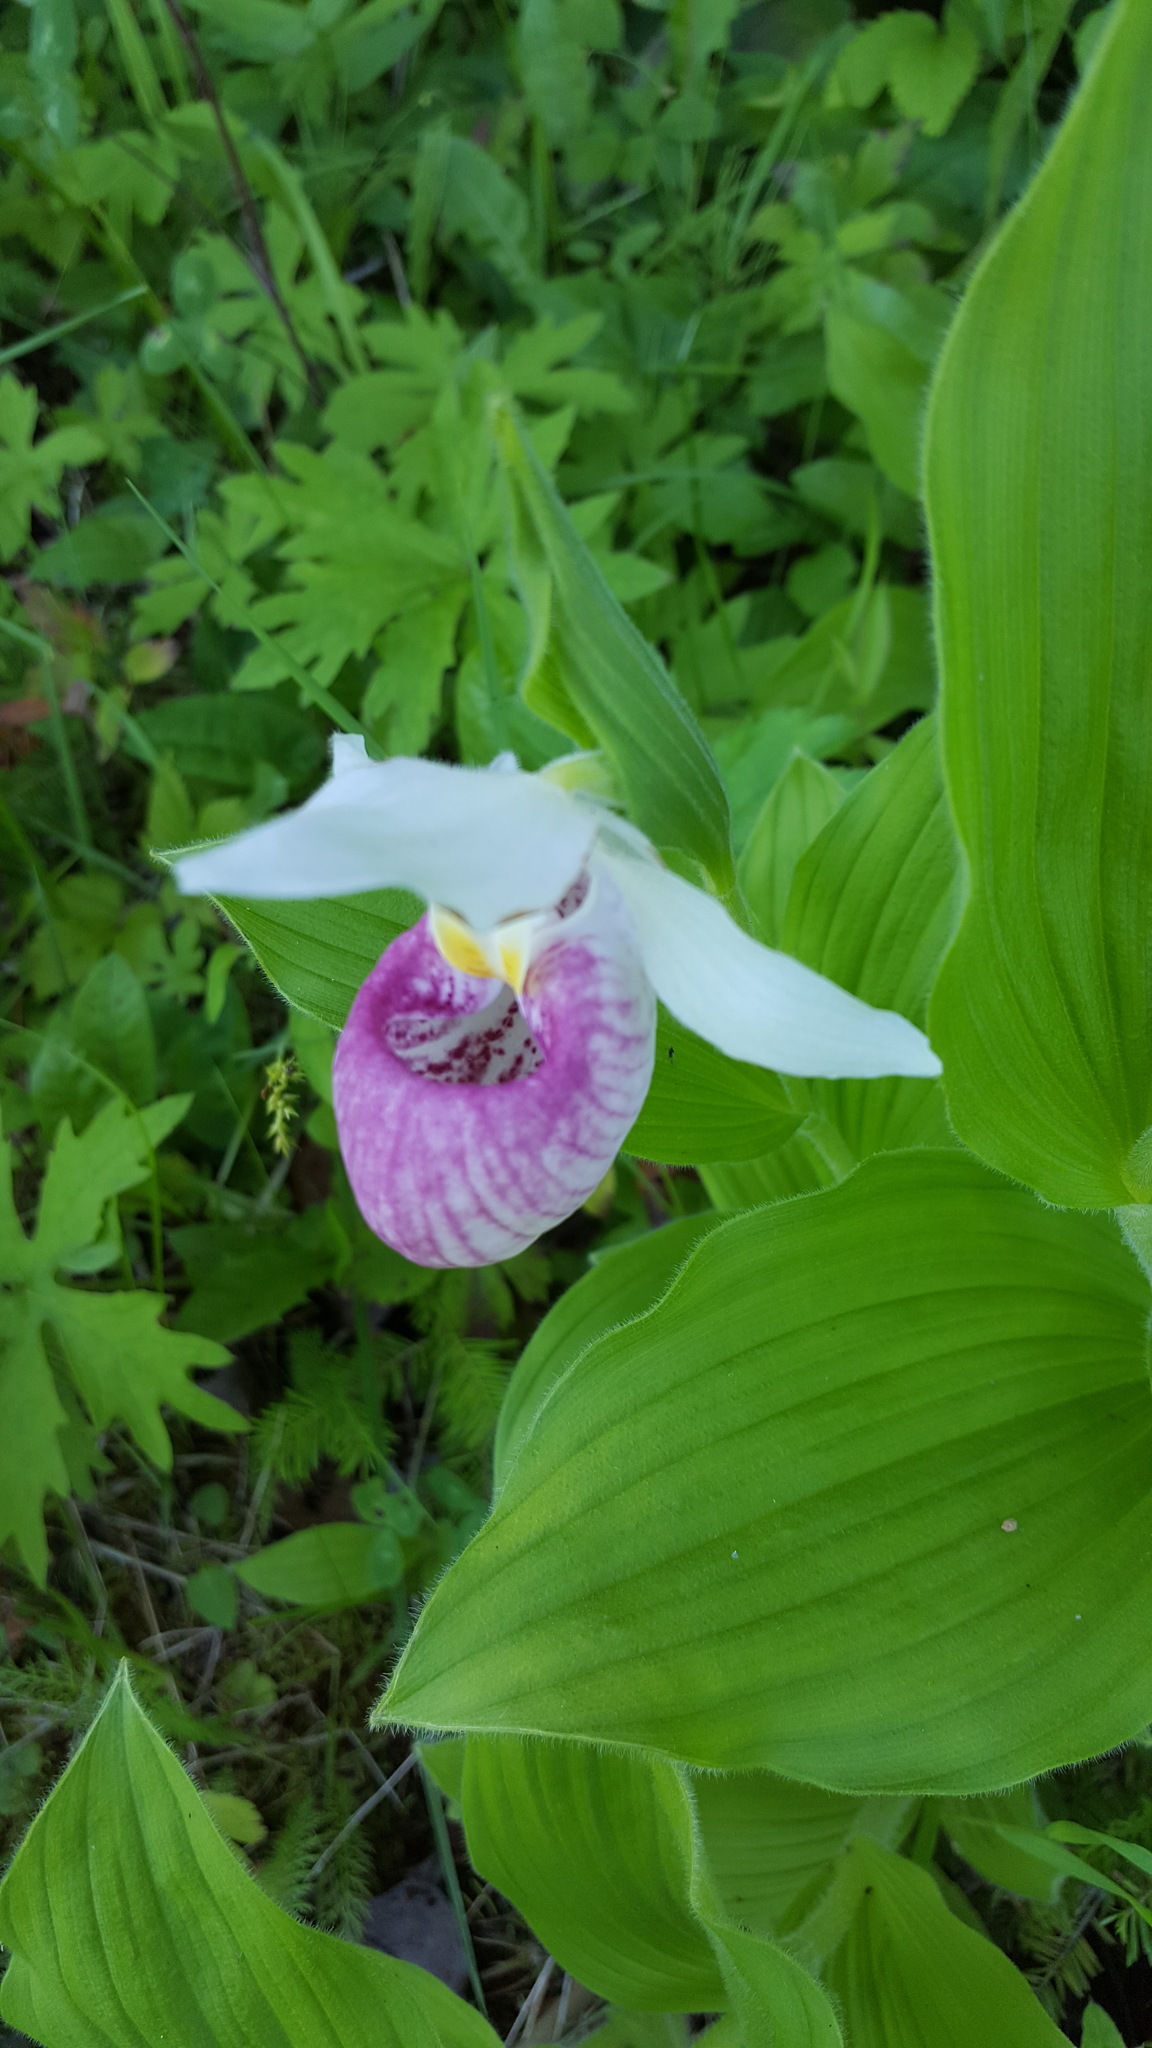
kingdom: Plantae
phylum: Tracheophyta
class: Liliopsida
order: Asparagales
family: Orchidaceae
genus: Cypripedium
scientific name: Cypripedium reginae
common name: Queen lady's-slipper
